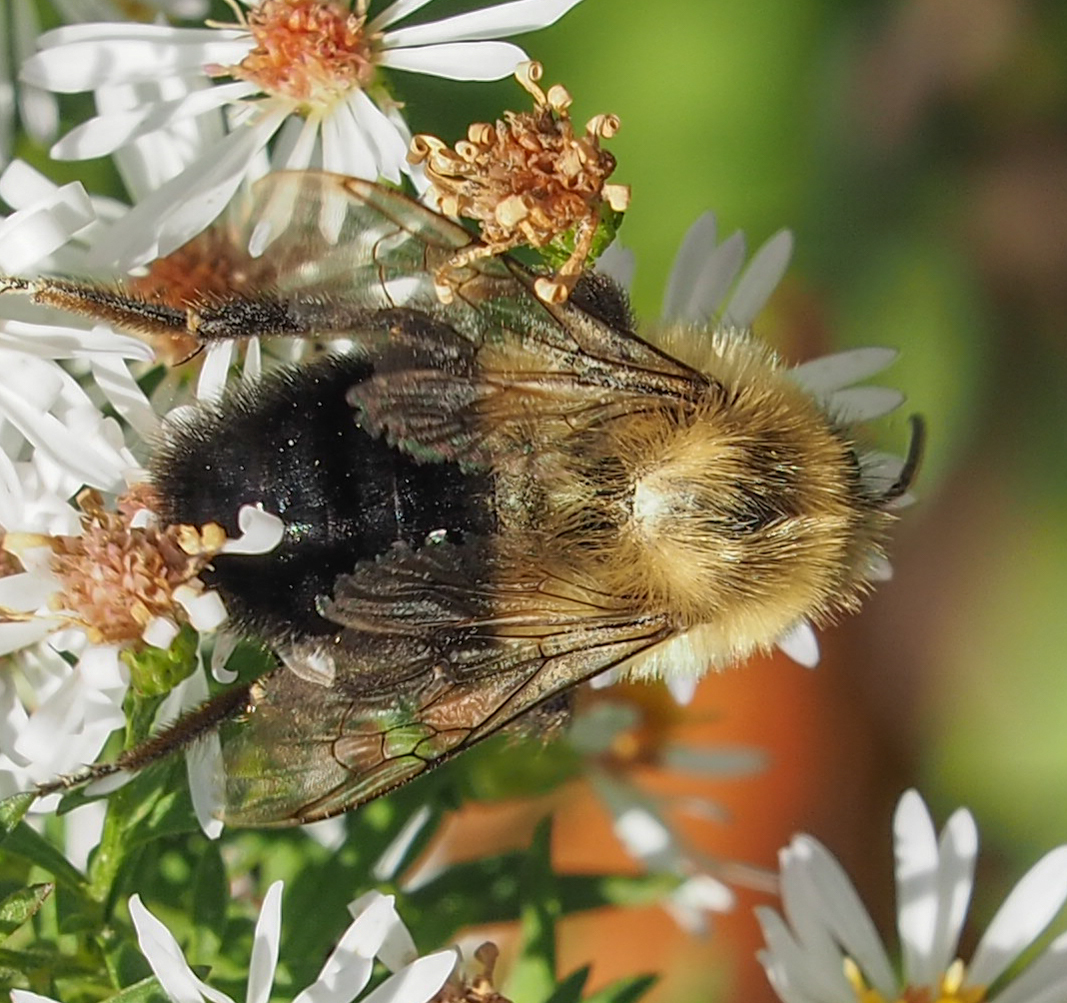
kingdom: Animalia
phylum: Arthropoda
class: Insecta
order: Hymenoptera
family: Apidae
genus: Bombus
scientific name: Bombus impatiens
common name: Common eastern bumble bee
